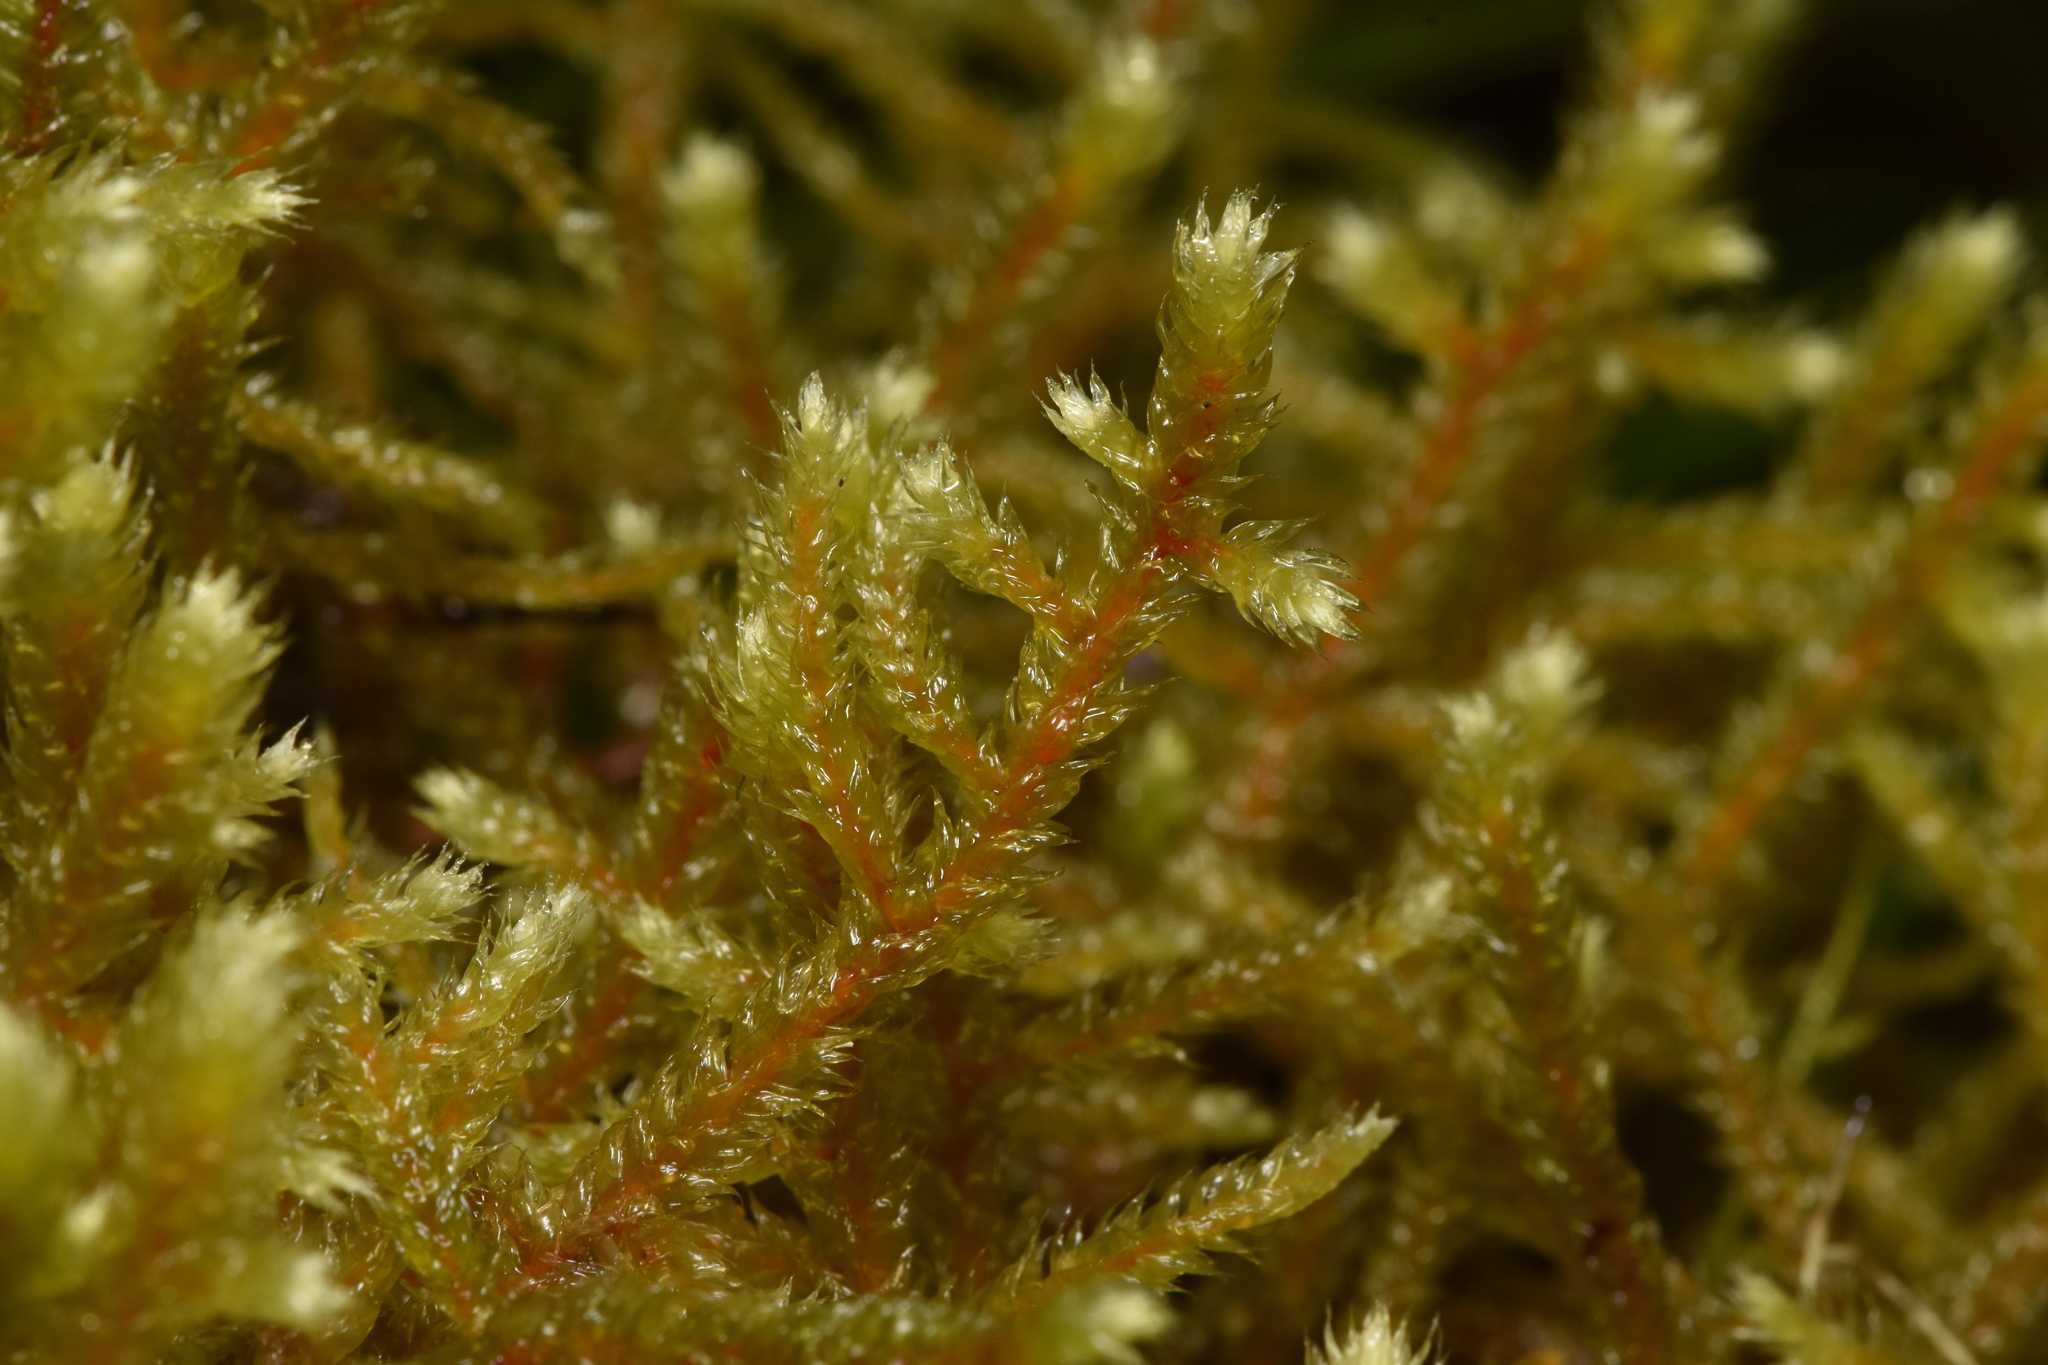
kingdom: Plantae
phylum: Bryophyta
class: Bryopsida
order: Hypnales
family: Antitrichiaceae
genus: Antitrichia
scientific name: Antitrichia curtipendula
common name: Pendulous wing-moss
